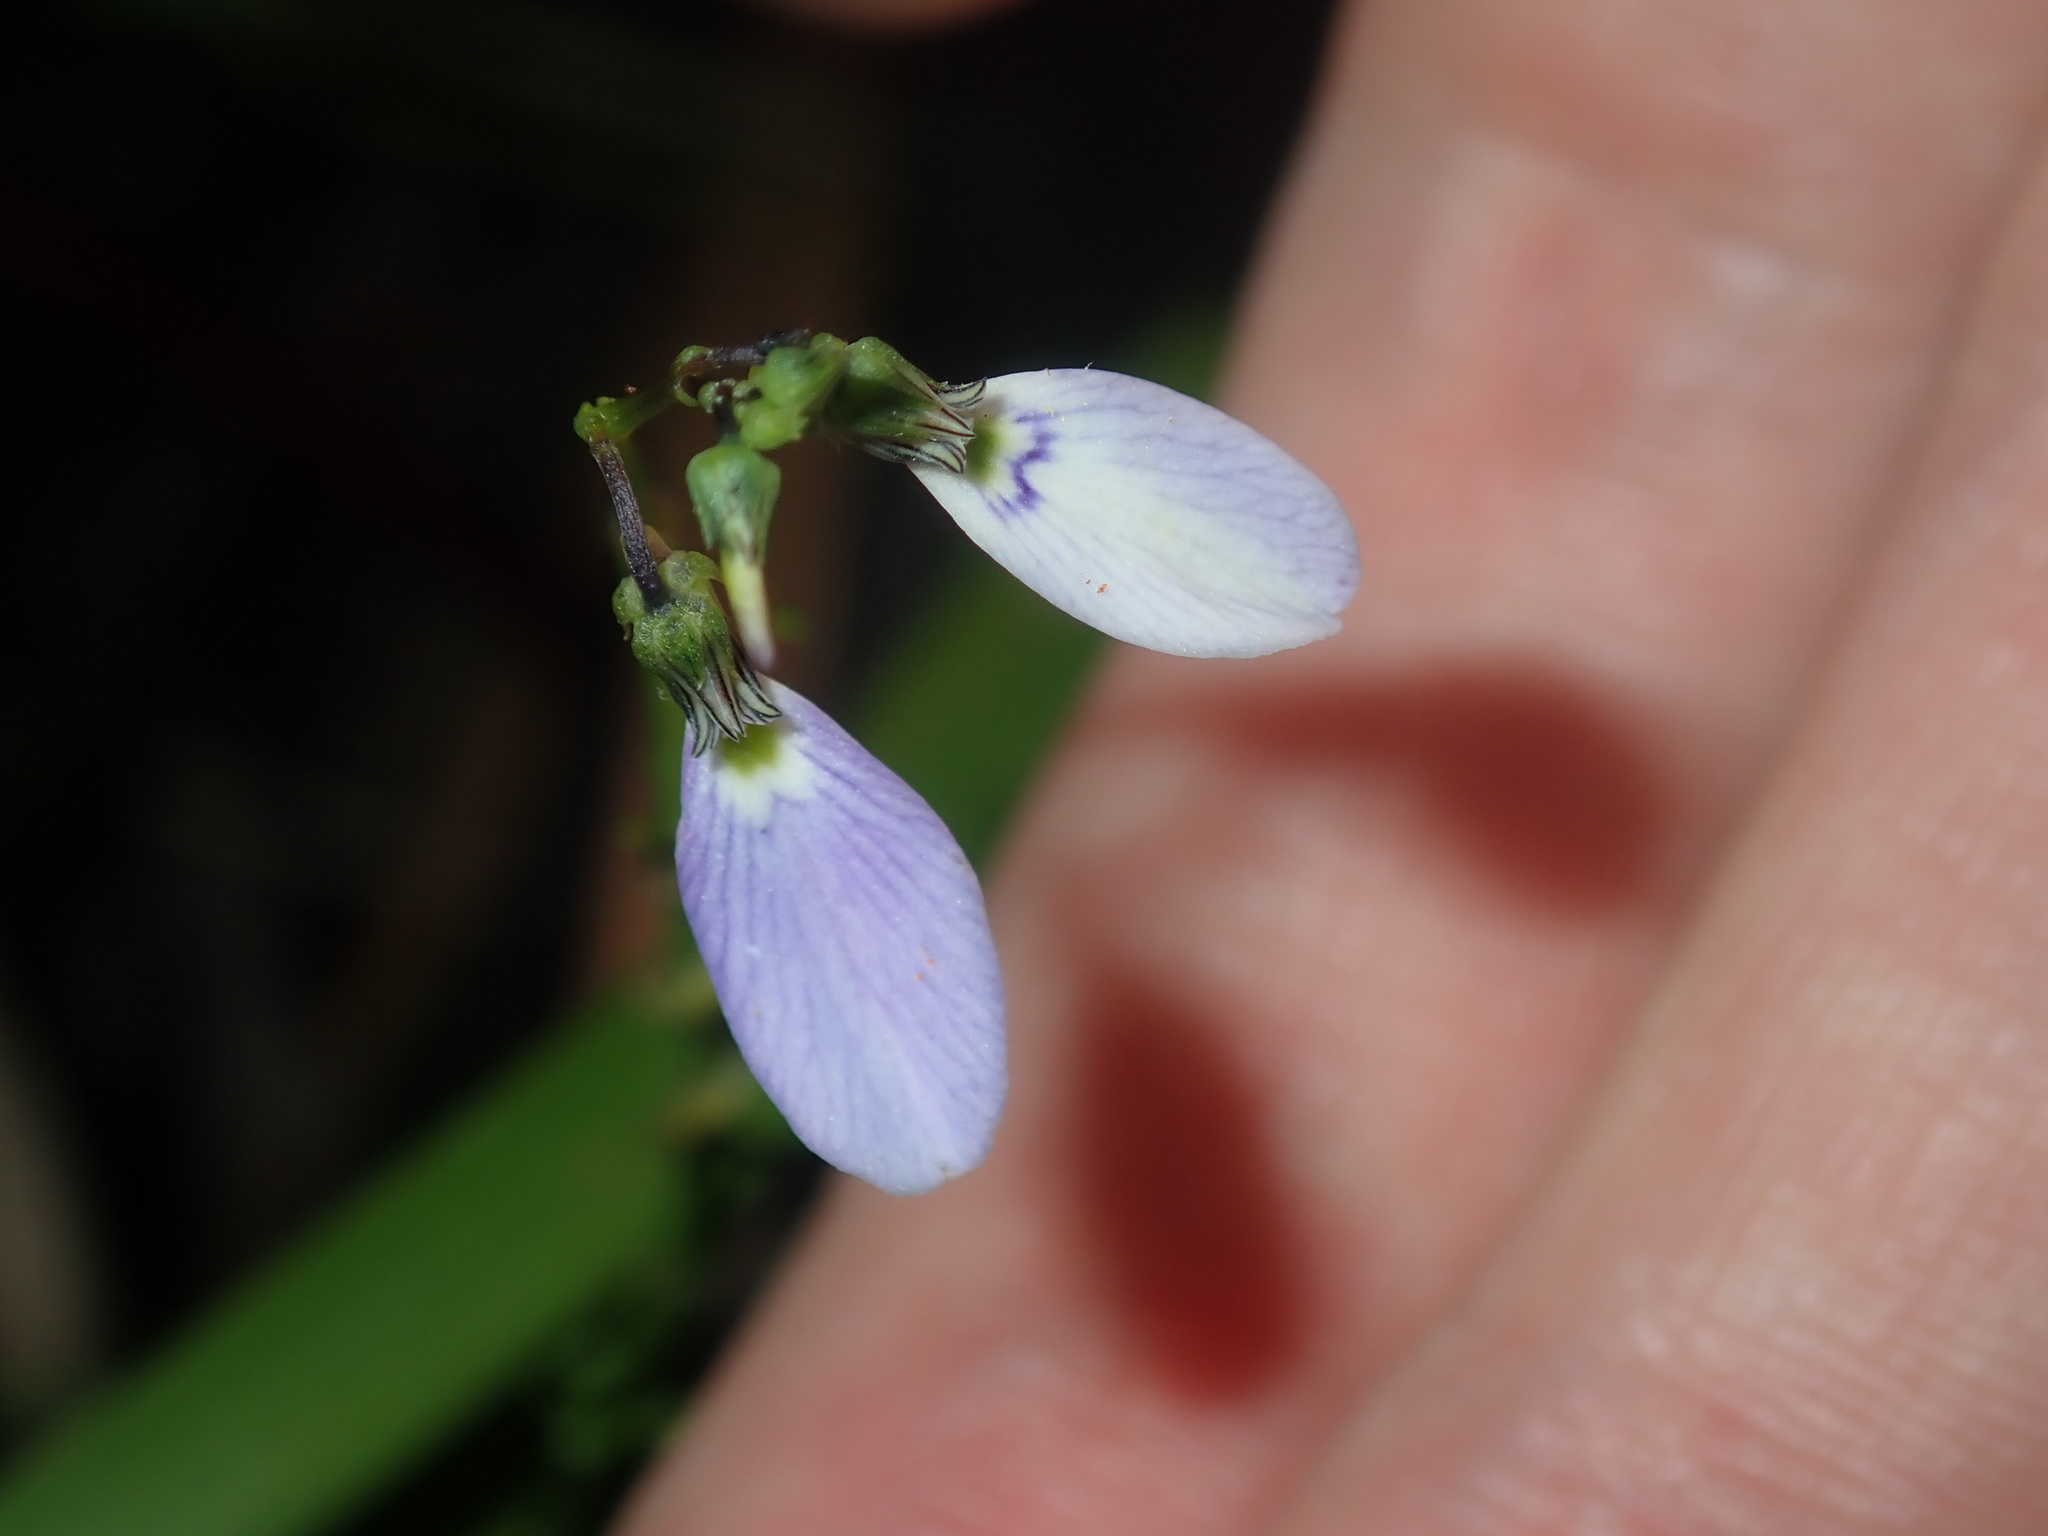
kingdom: Plantae
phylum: Tracheophyta
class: Magnoliopsida
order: Malpighiales
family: Violaceae
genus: Pigea
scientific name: Pigea monopetala
